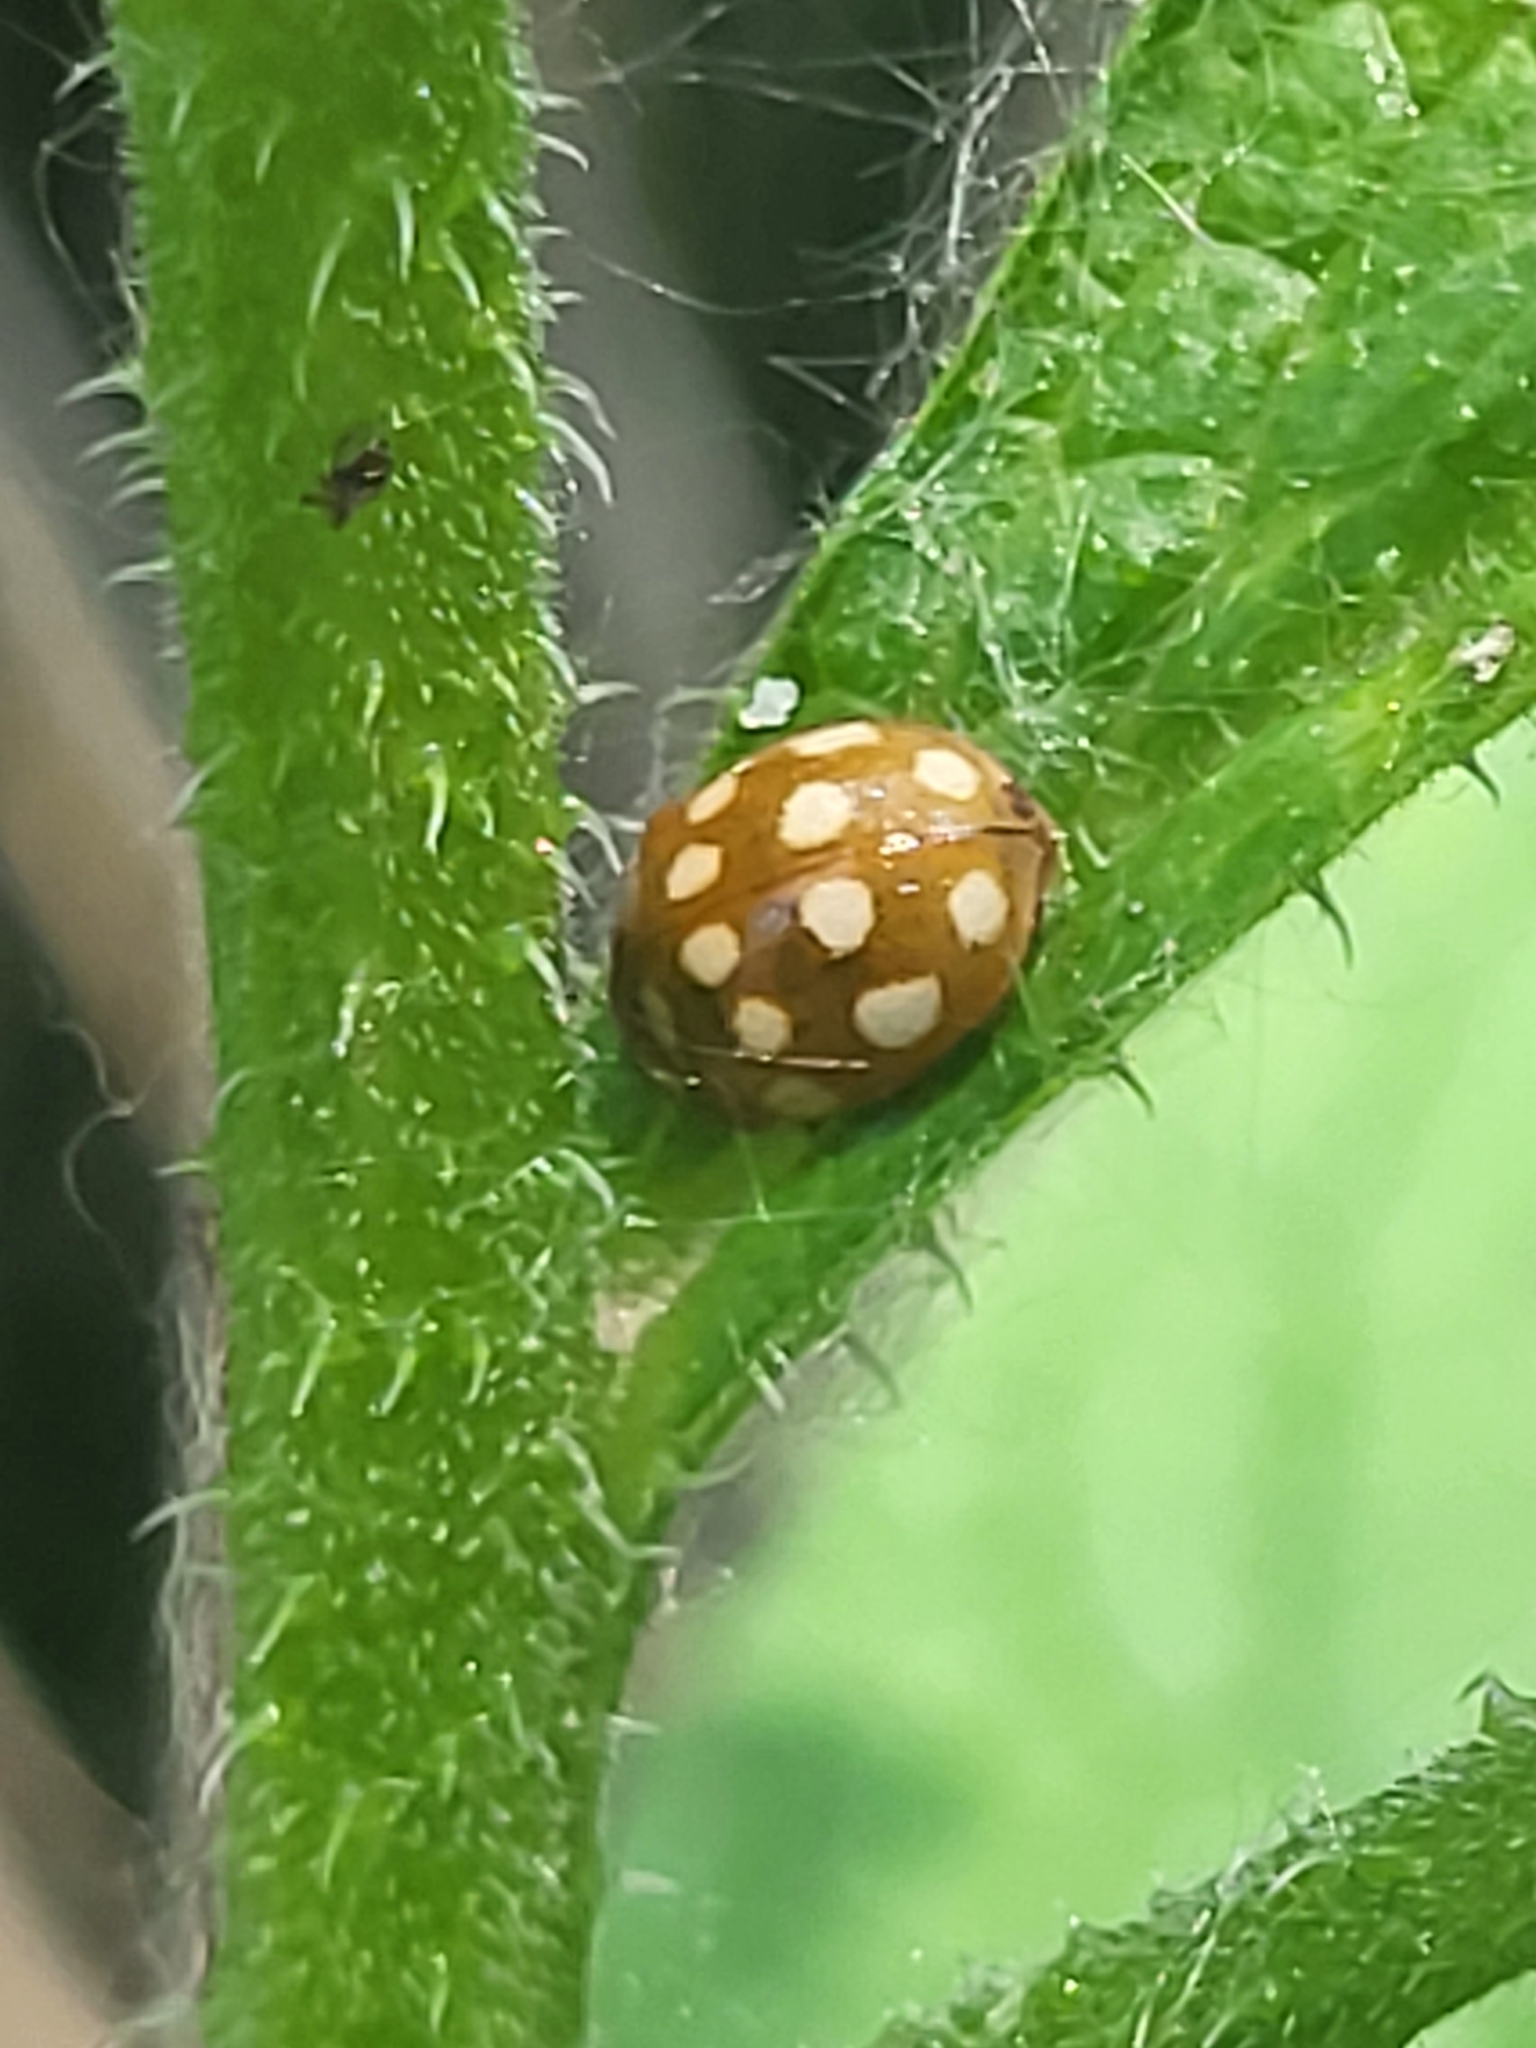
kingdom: Animalia
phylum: Arthropoda
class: Insecta
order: Coleoptera
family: Coccinellidae
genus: Calvia
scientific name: Calvia quatuordecimguttata
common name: Cream-spot ladybird
